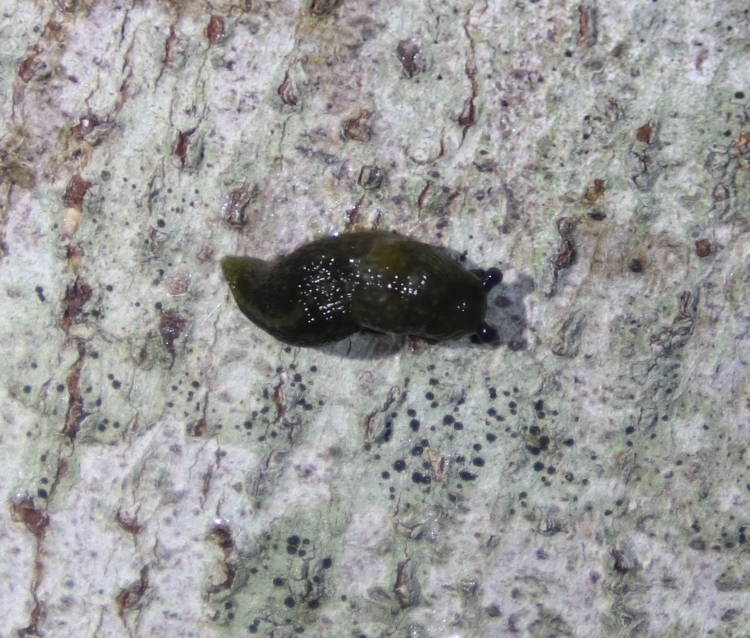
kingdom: Animalia
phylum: Mollusca
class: Gastropoda
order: Stylommatophora
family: Limacidae
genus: Limacus
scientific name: Limacus flavus
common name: Yellow gardenslug
